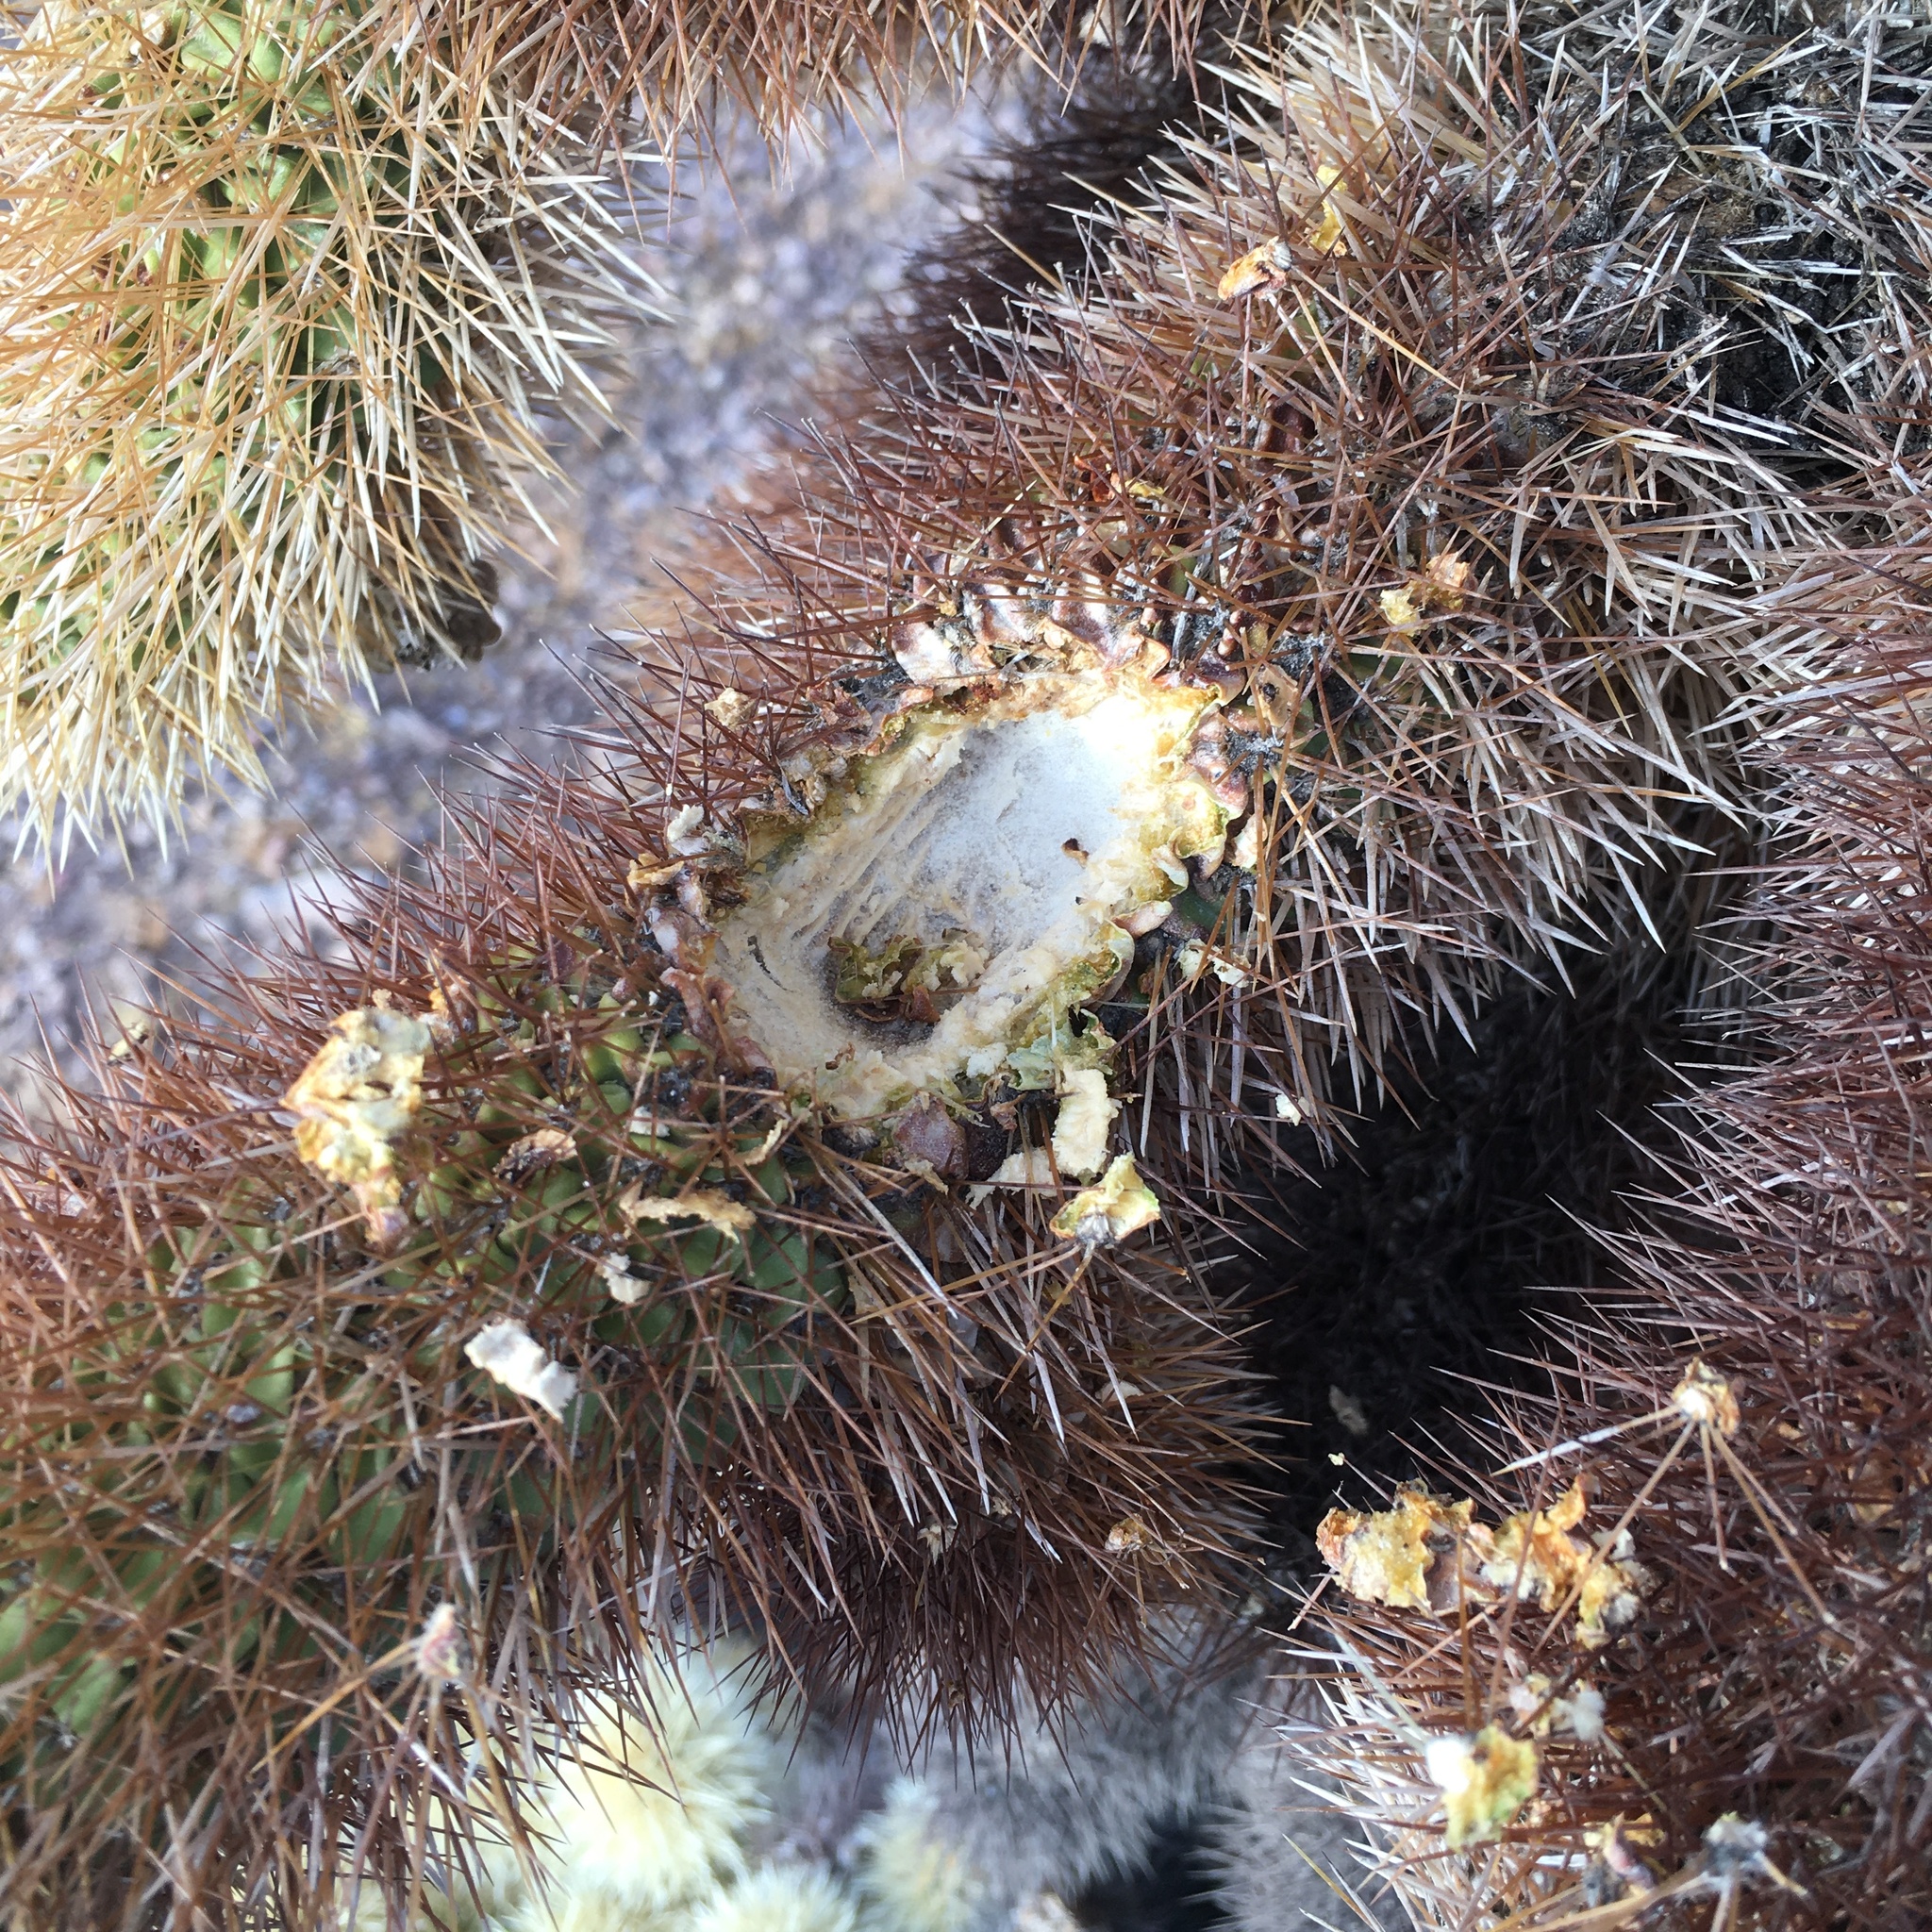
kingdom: Plantae
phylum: Tracheophyta
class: Magnoliopsida
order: Caryophyllales
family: Cactaceae
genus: Cylindropuntia
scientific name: Cylindropuntia fosbergii
